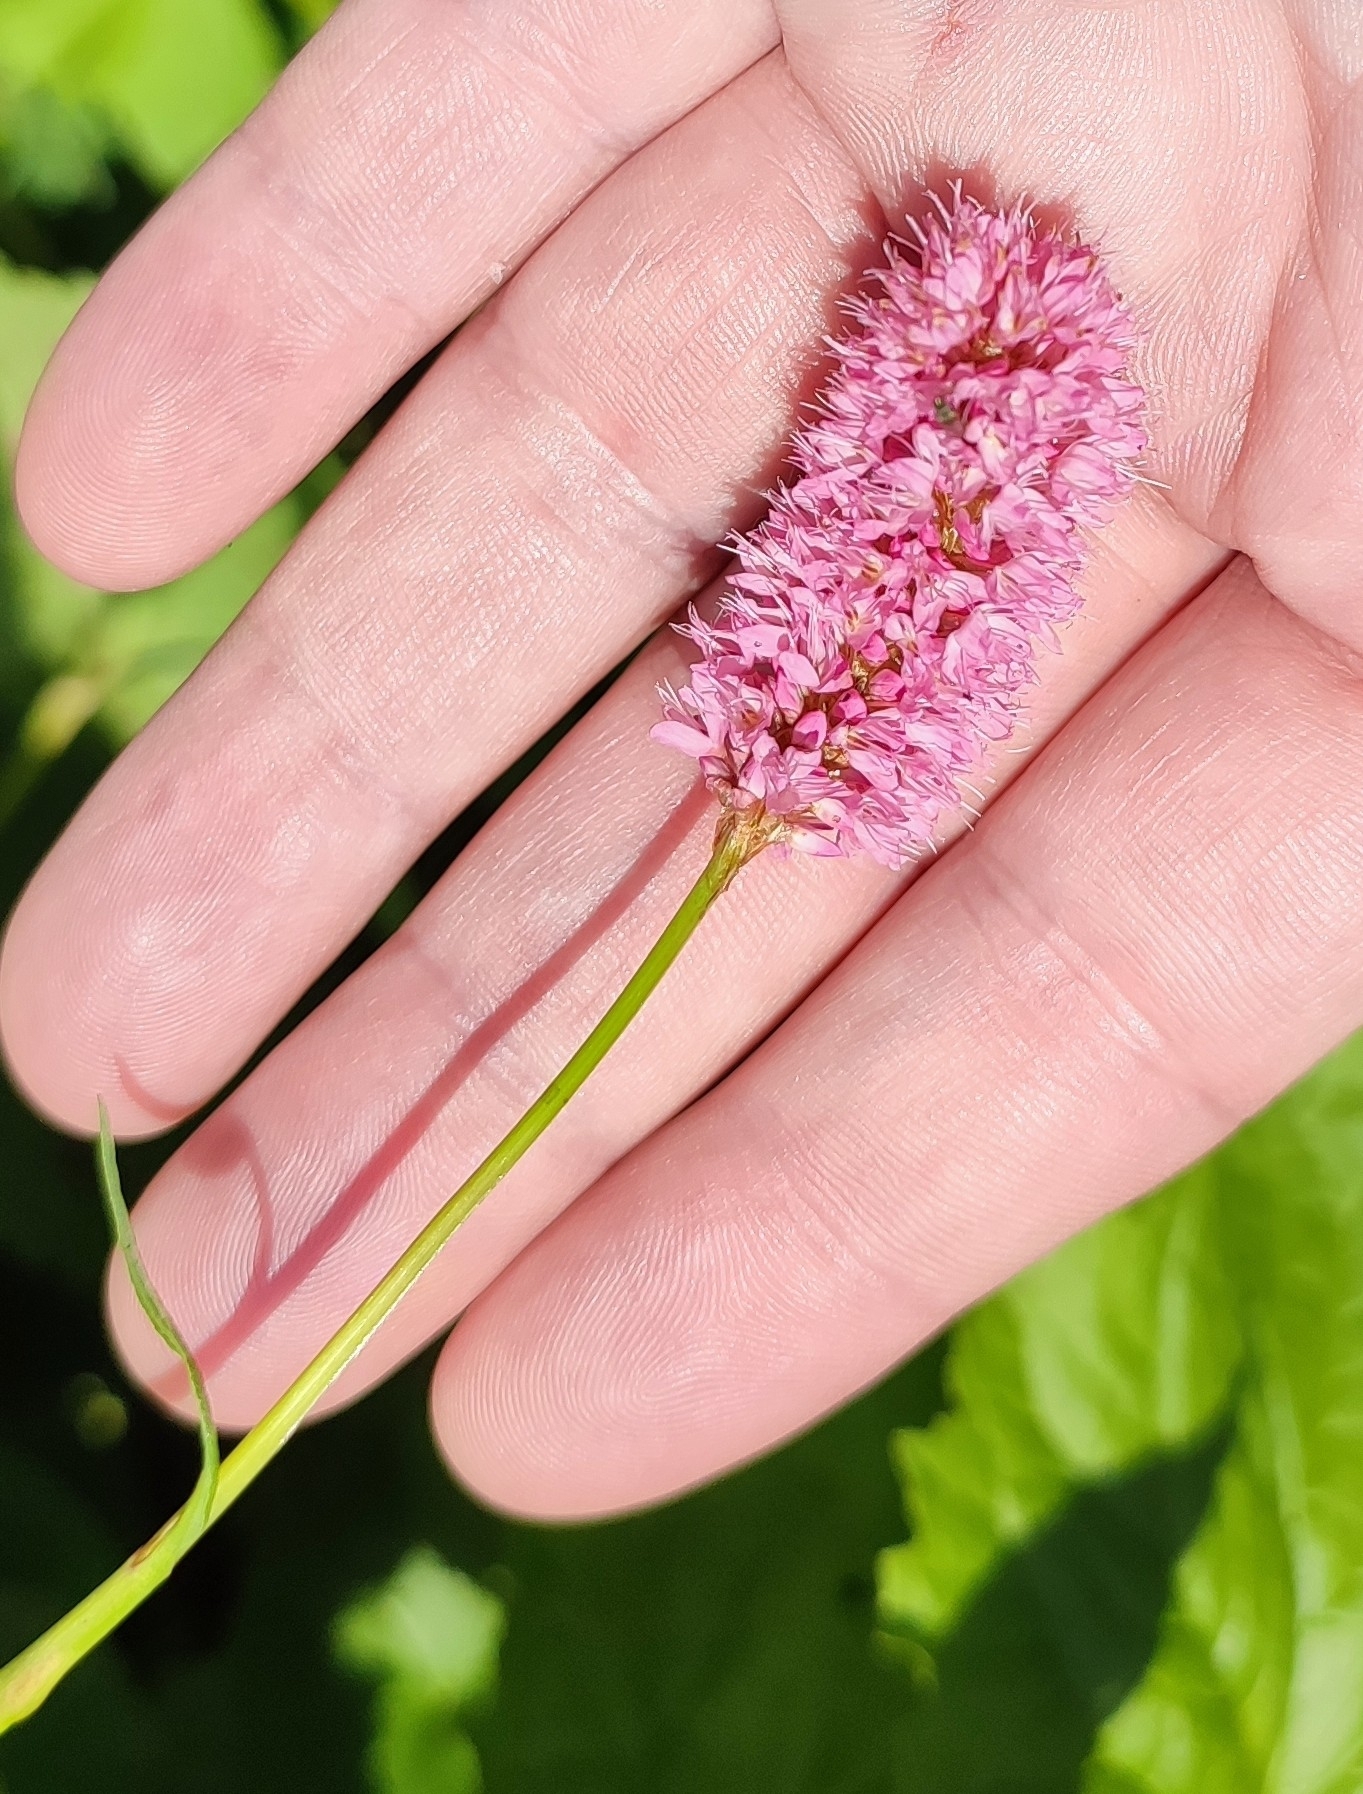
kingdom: Plantae
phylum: Tracheophyta
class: Magnoliopsida
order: Caryophyllales
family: Polygonaceae
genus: Bistorta
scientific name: Bistorta carnea
